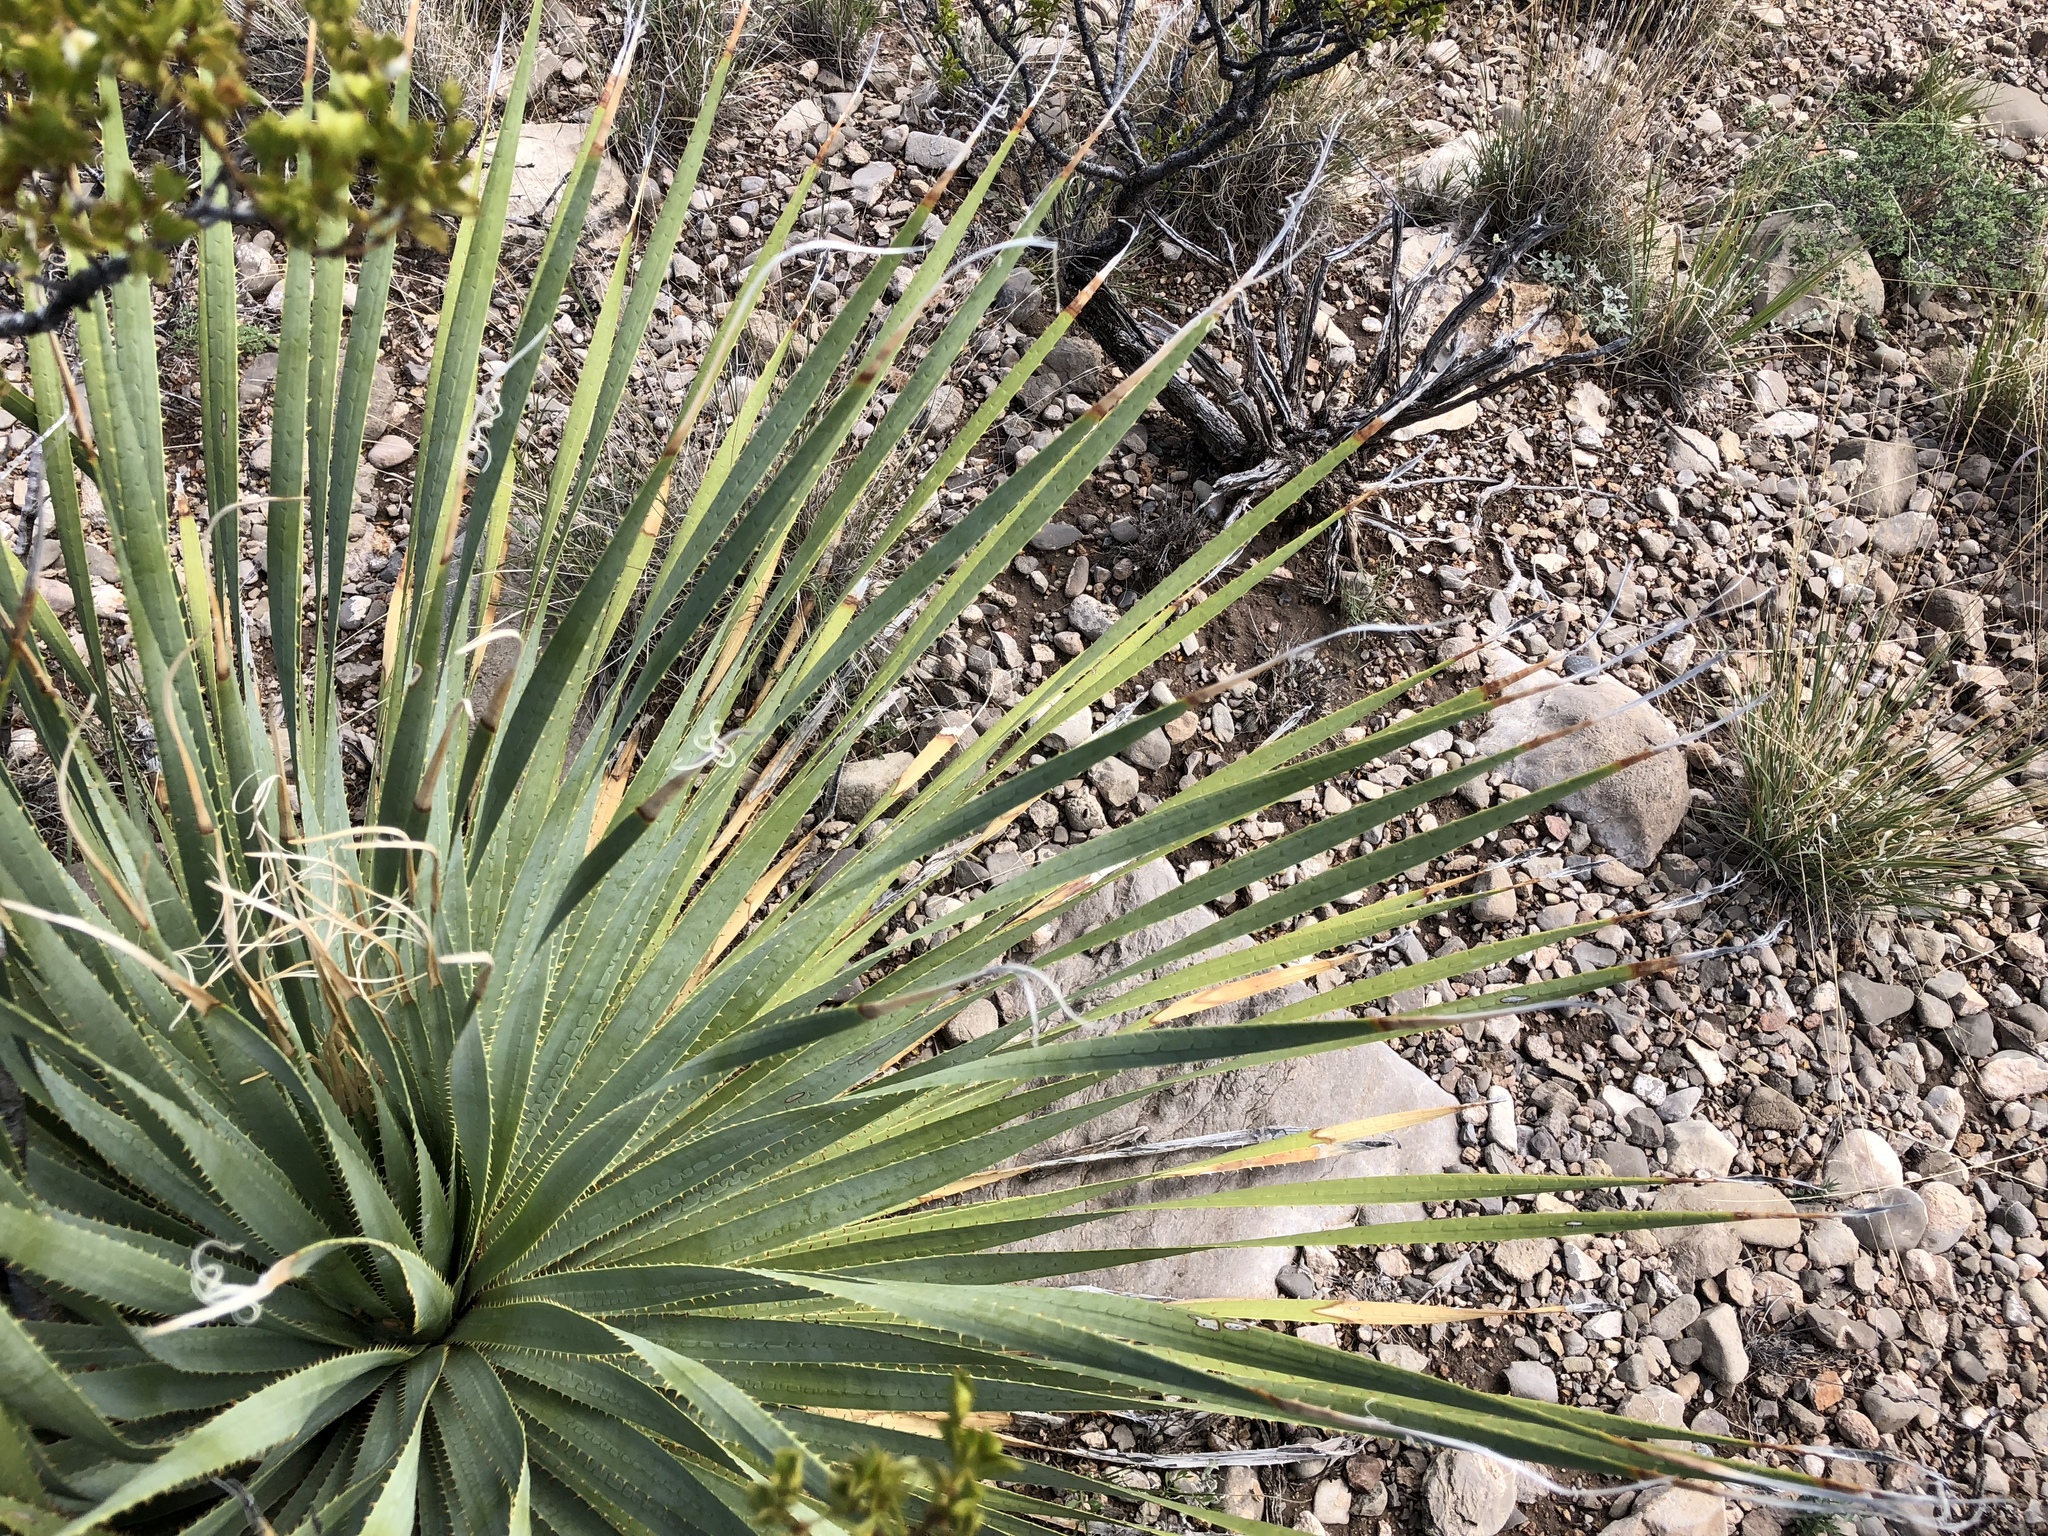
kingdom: Plantae
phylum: Tracheophyta
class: Liliopsida
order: Asparagales
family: Asparagaceae
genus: Dasylirion
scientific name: Dasylirion wheeleri
